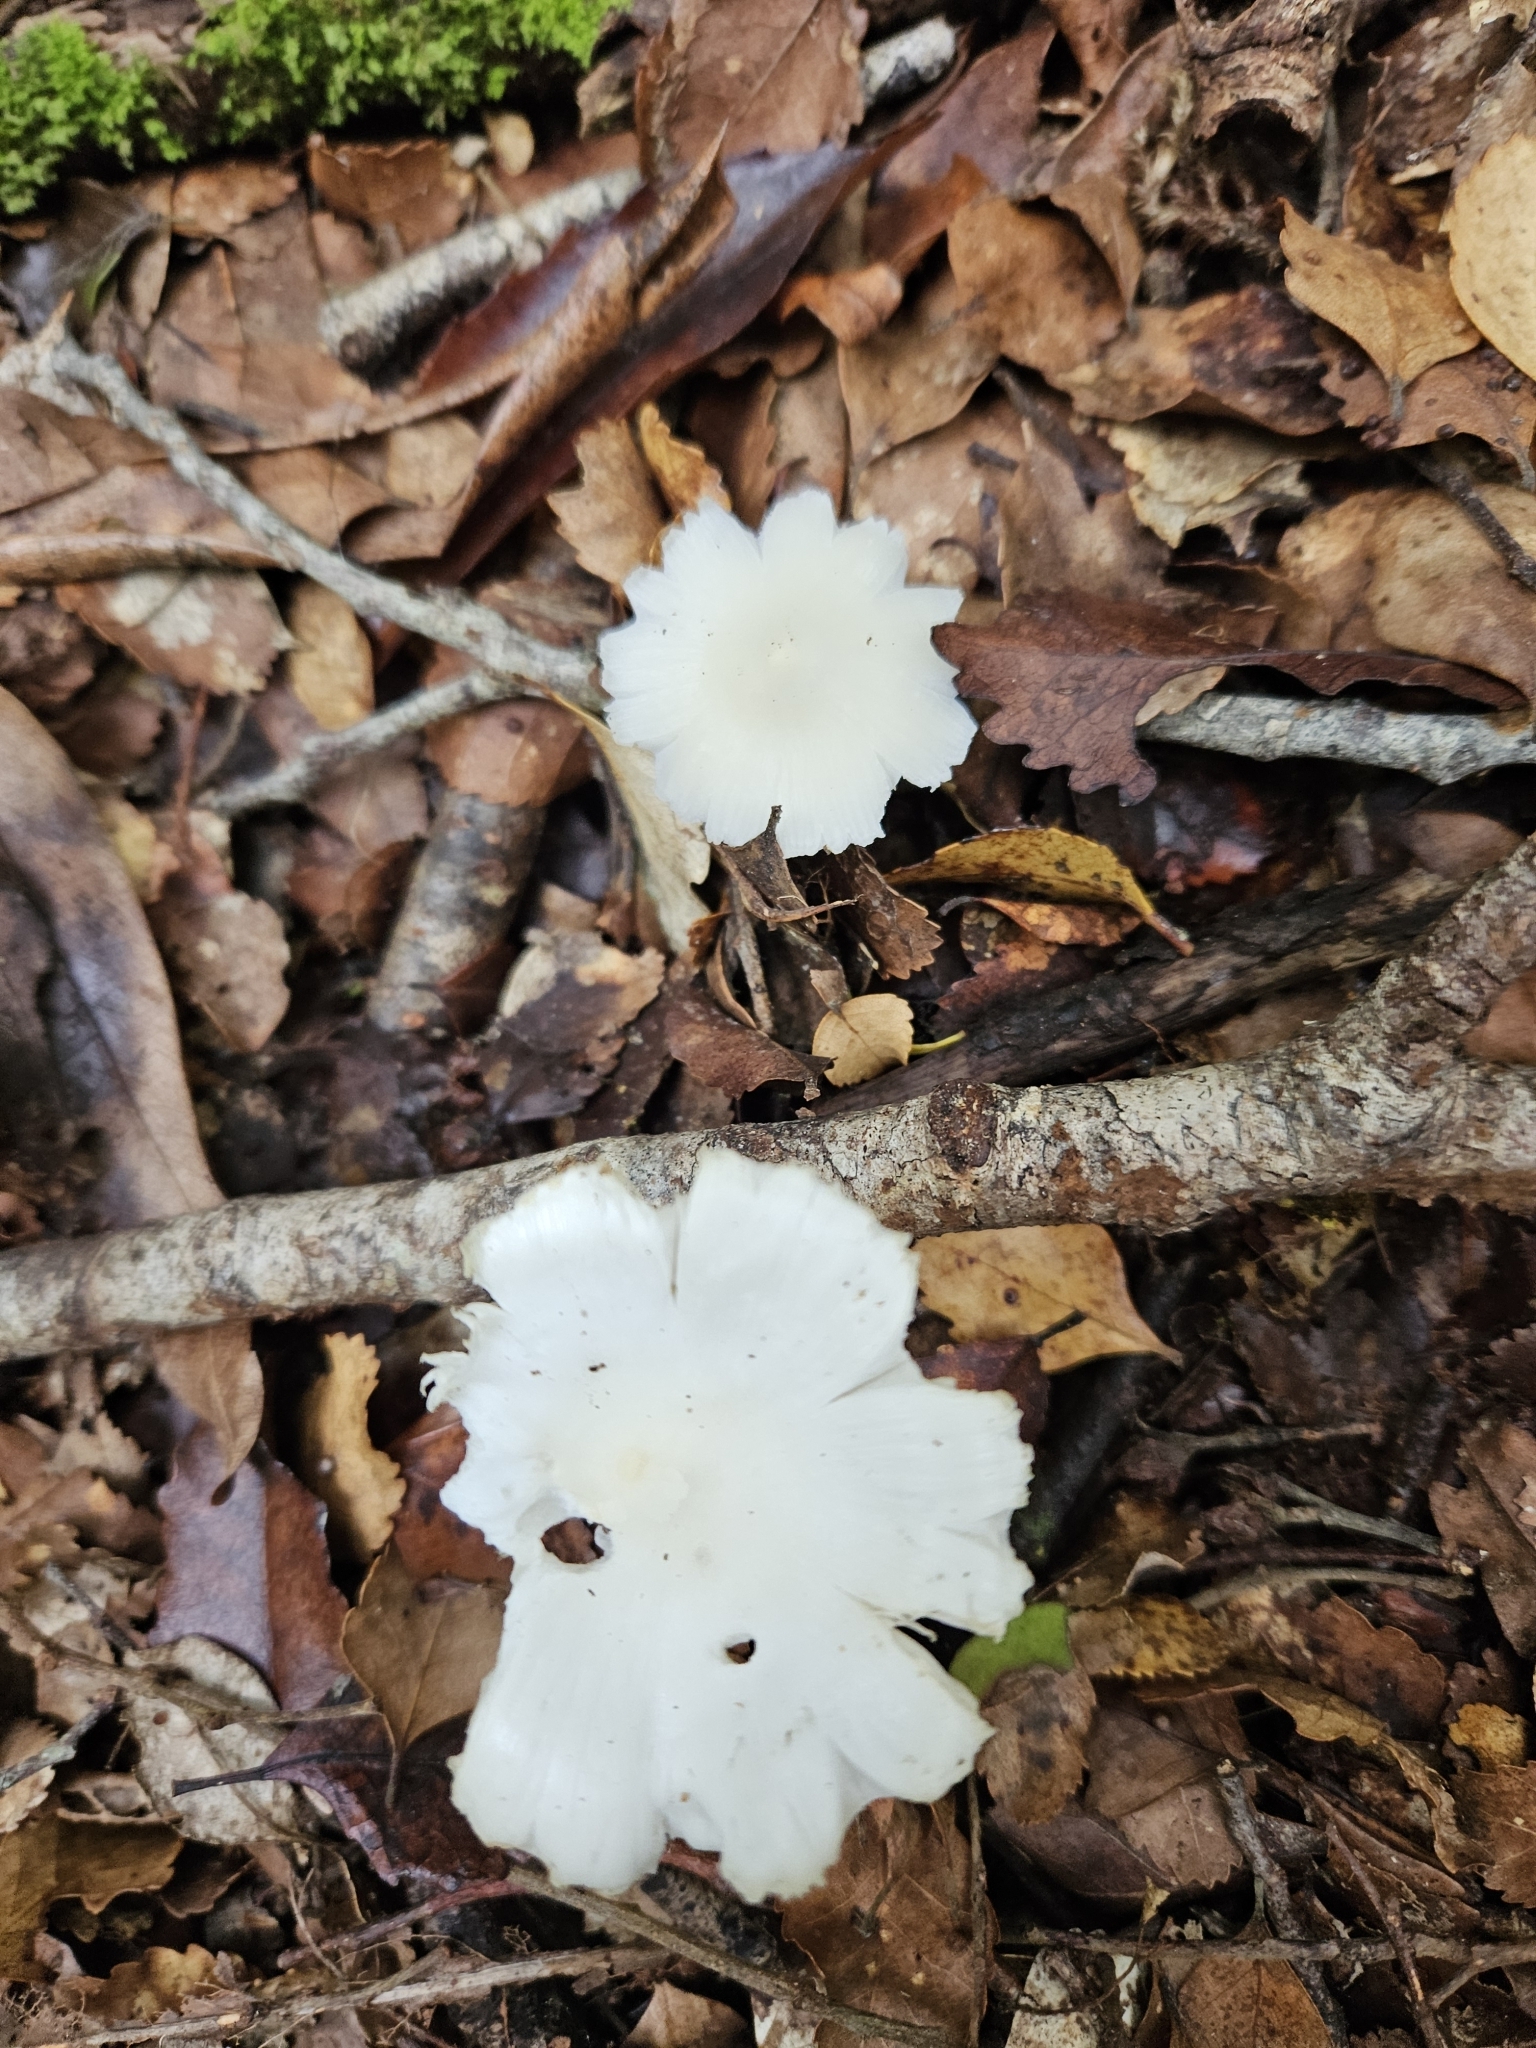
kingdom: Fungi
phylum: Basidiomycota
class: Agaricomycetes
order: Agaricales
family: Hygrophoraceae
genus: Humidicutis
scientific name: Humidicutis mavis
